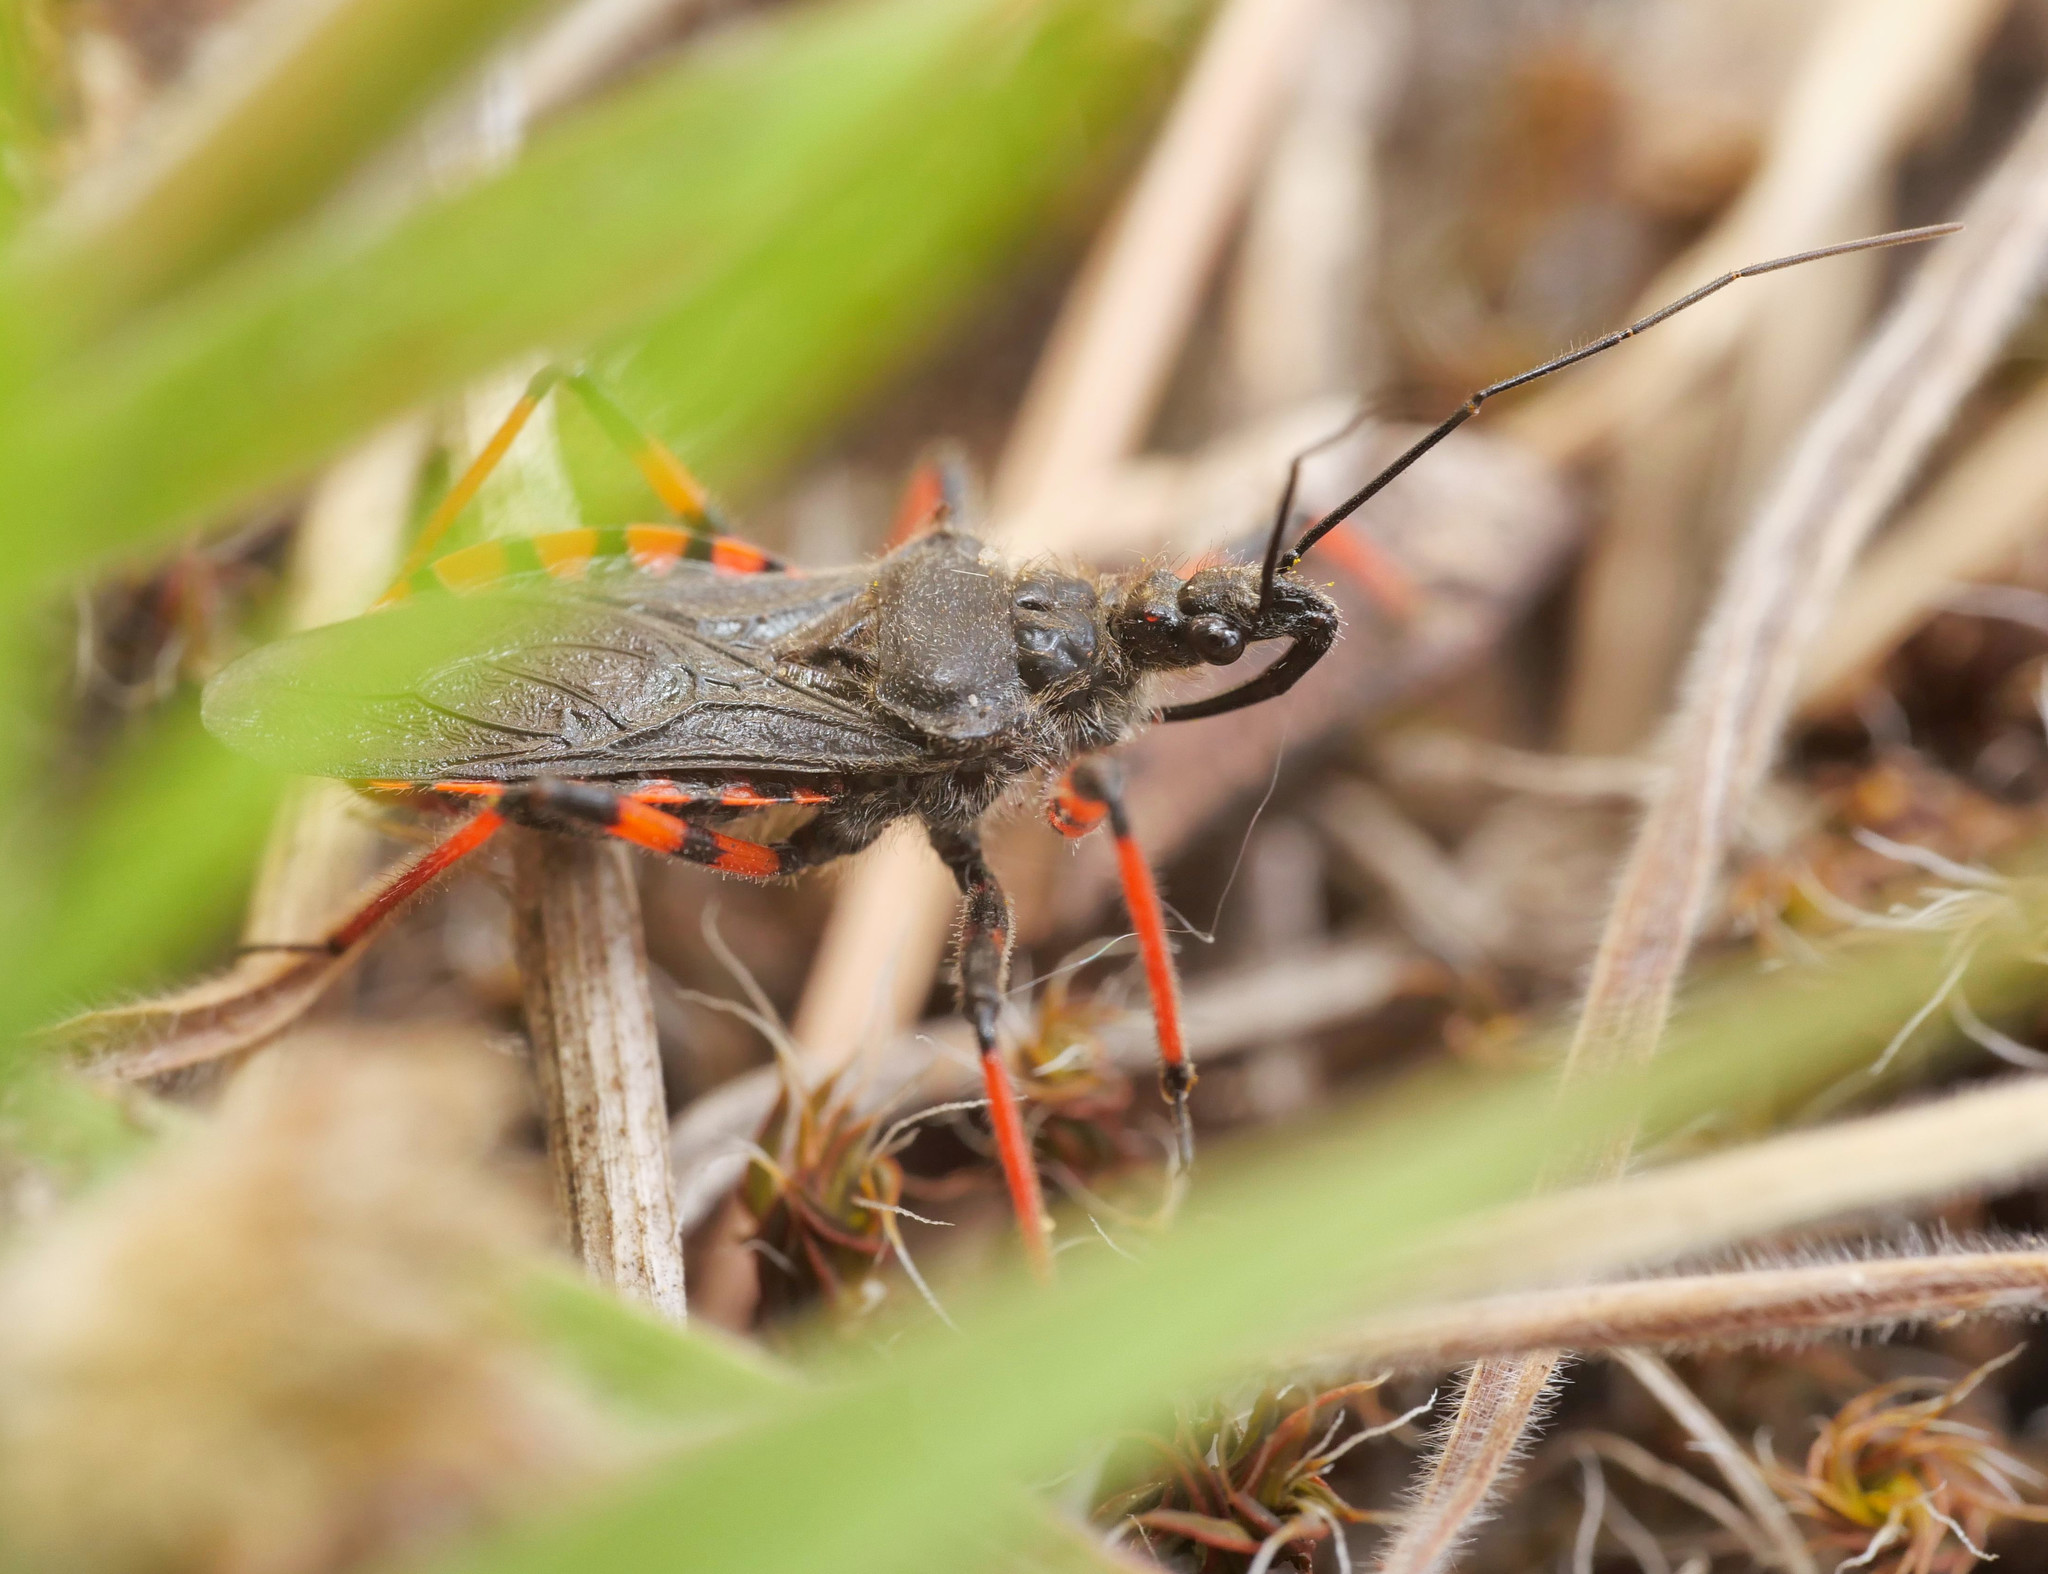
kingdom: Animalia
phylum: Arthropoda
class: Insecta
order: Hemiptera
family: Reduviidae
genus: Rhynocoris
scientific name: Rhynocoris annulatus
